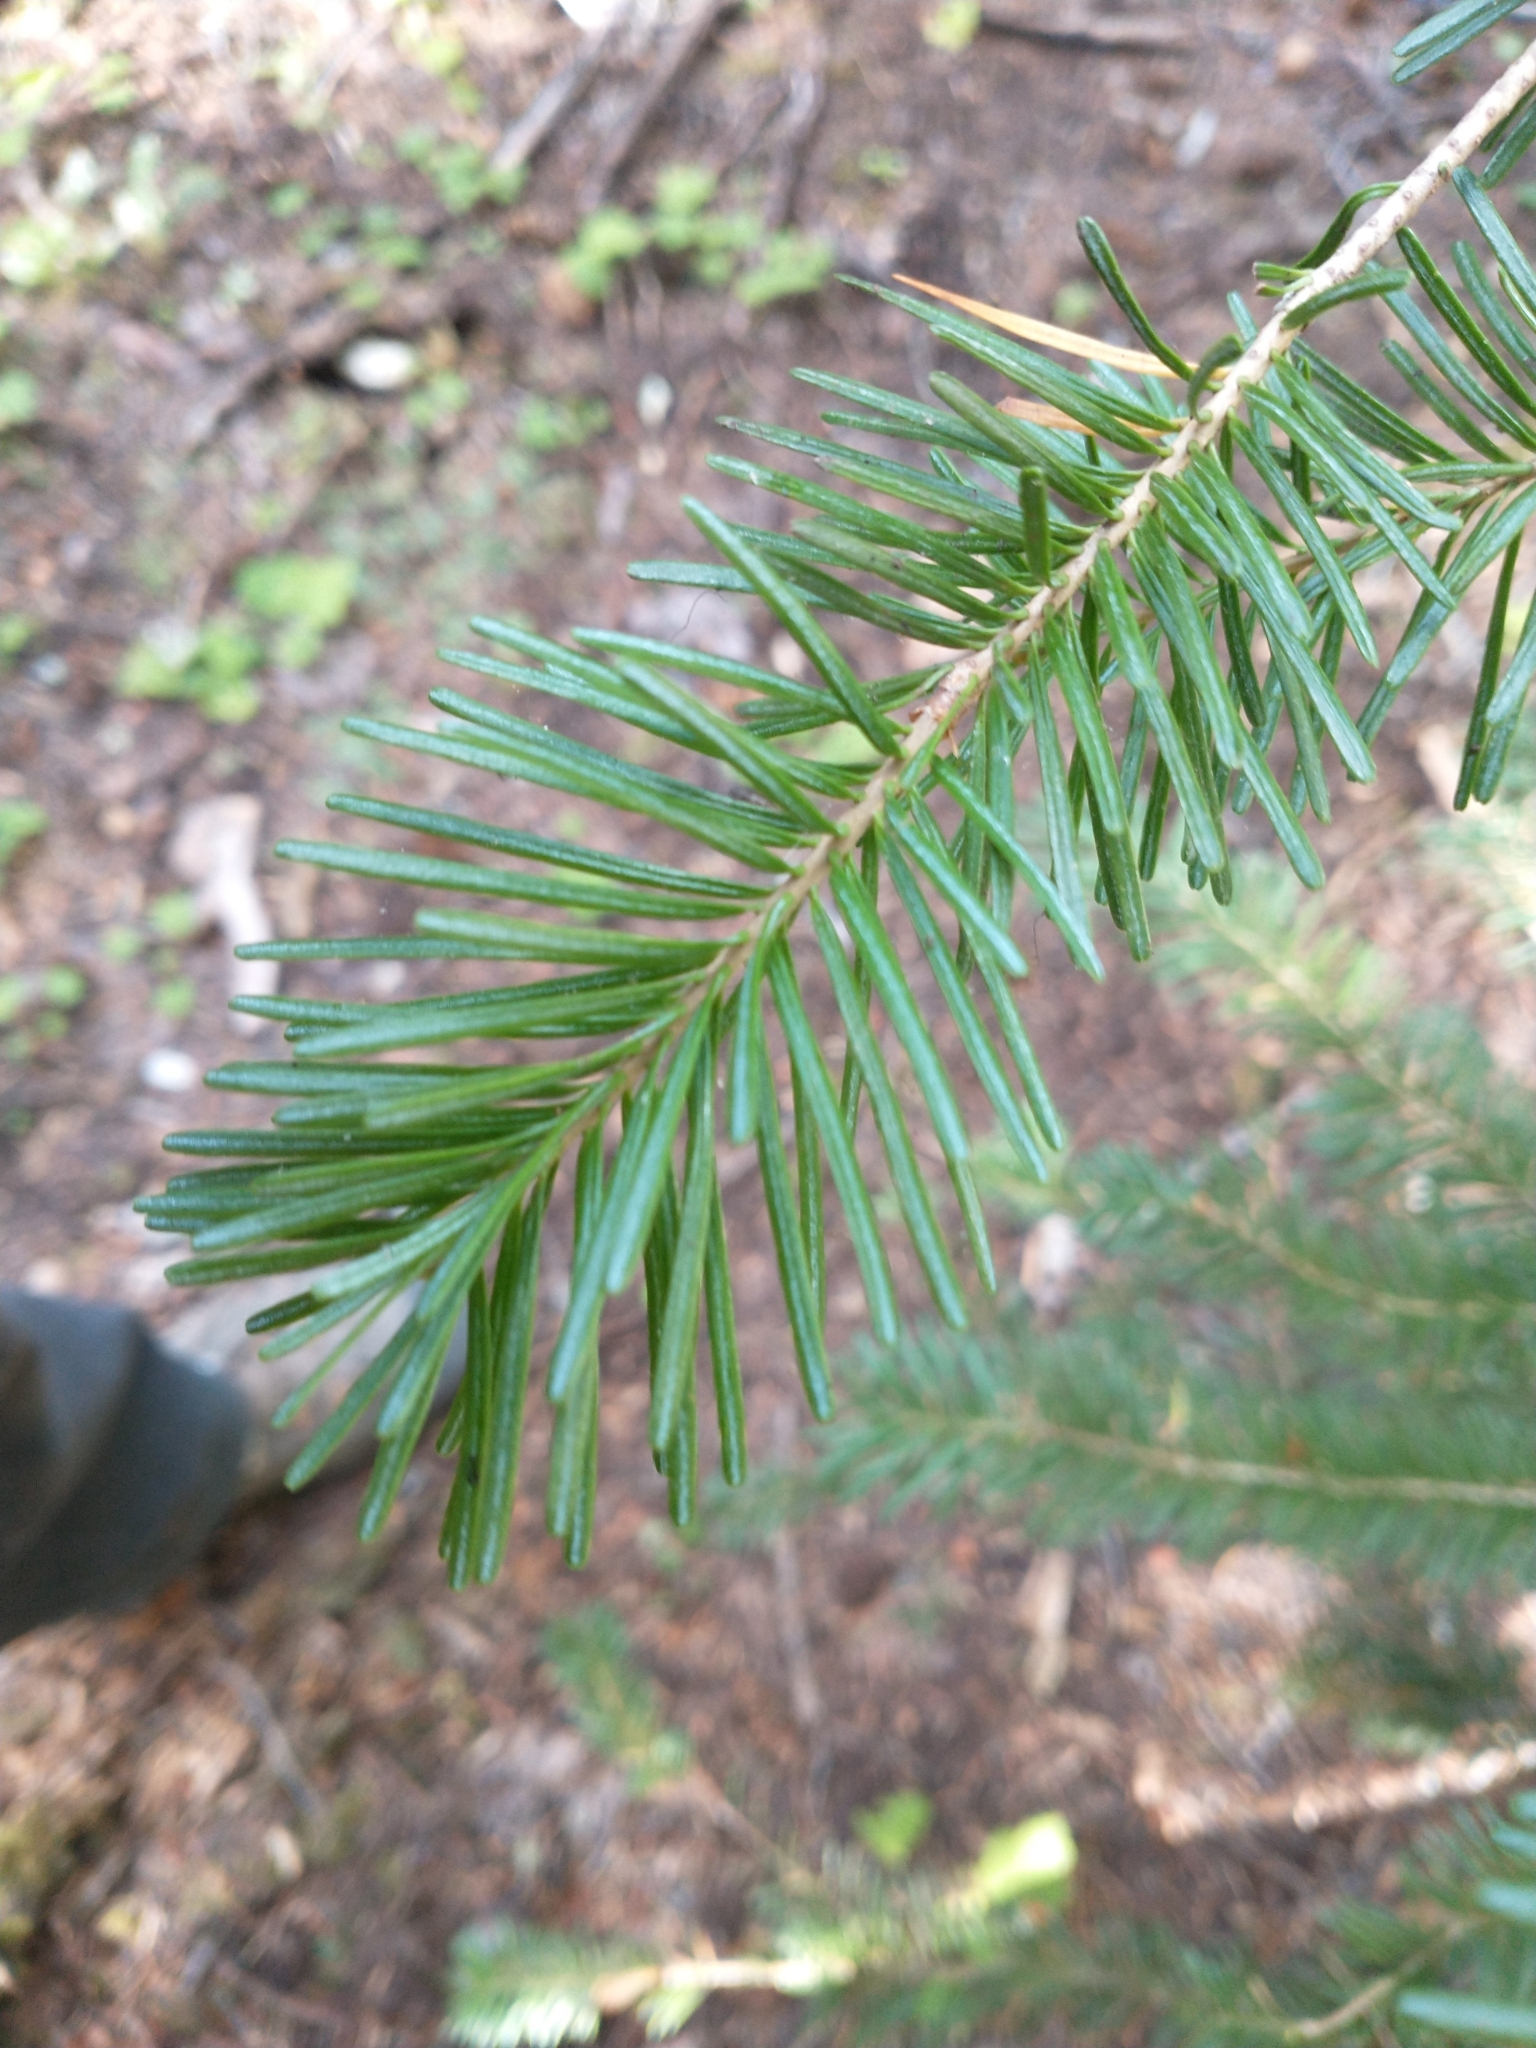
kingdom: Plantae
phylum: Tracheophyta
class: Pinopsida
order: Pinales
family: Pinaceae
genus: Abies
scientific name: Abies lasiocarpa
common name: Subalpine fir
